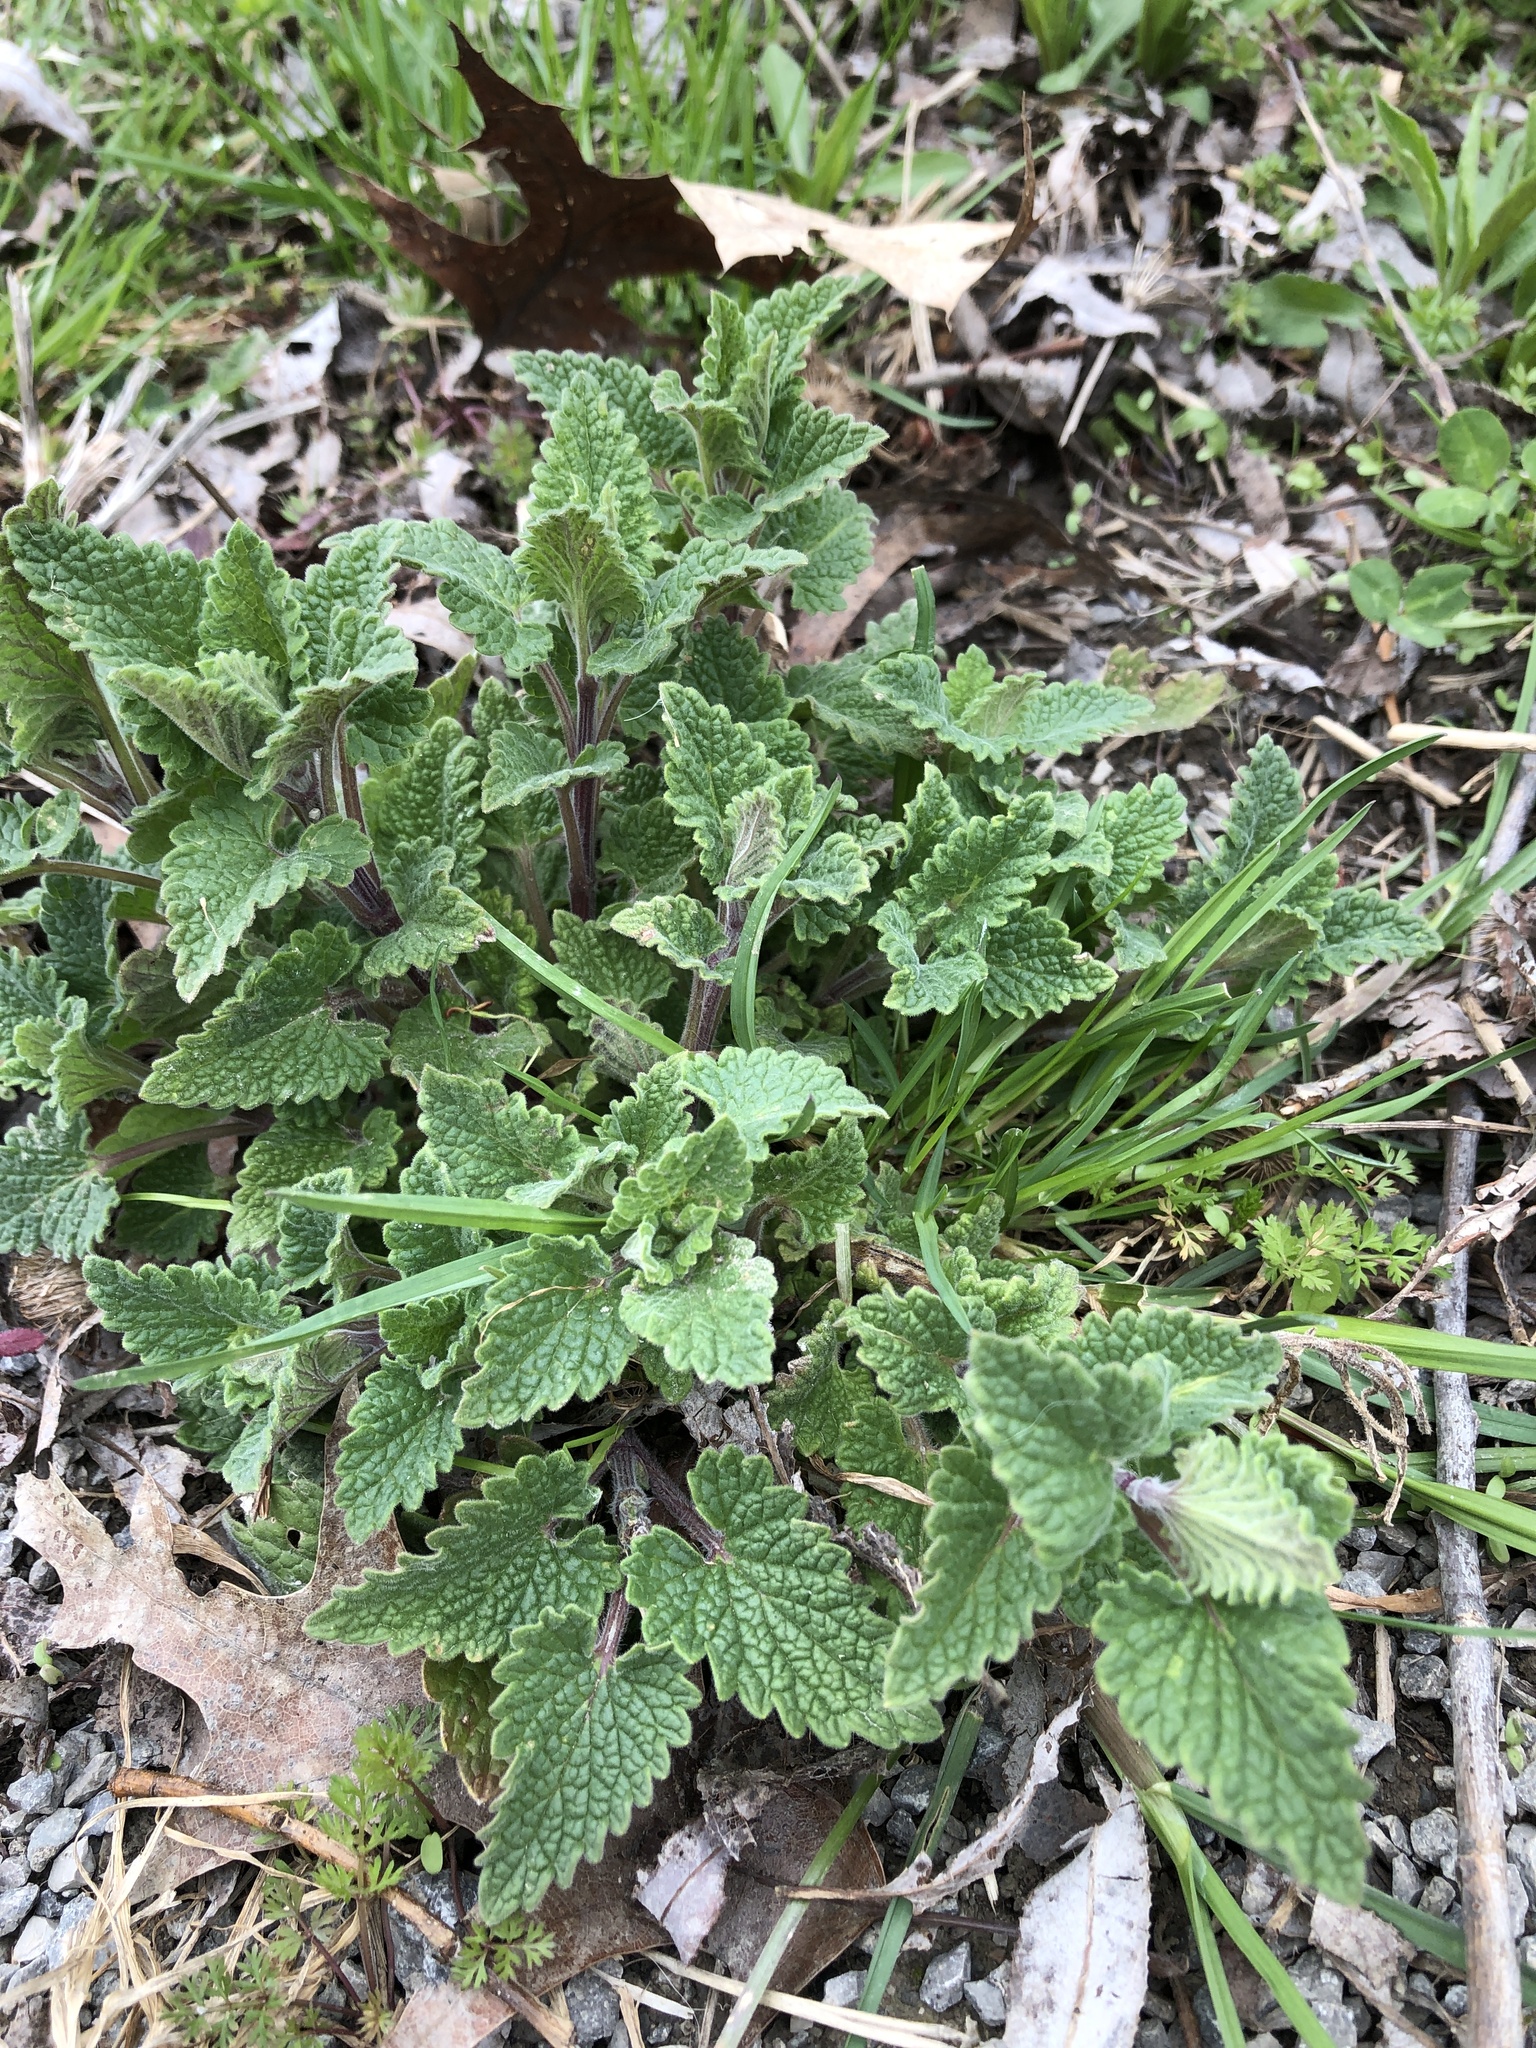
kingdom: Plantae
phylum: Tracheophyta
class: Magnoliopsida
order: Lamiales
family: Lamiaceae
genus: Nepeta
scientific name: Nepeta cataria
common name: Catnip
